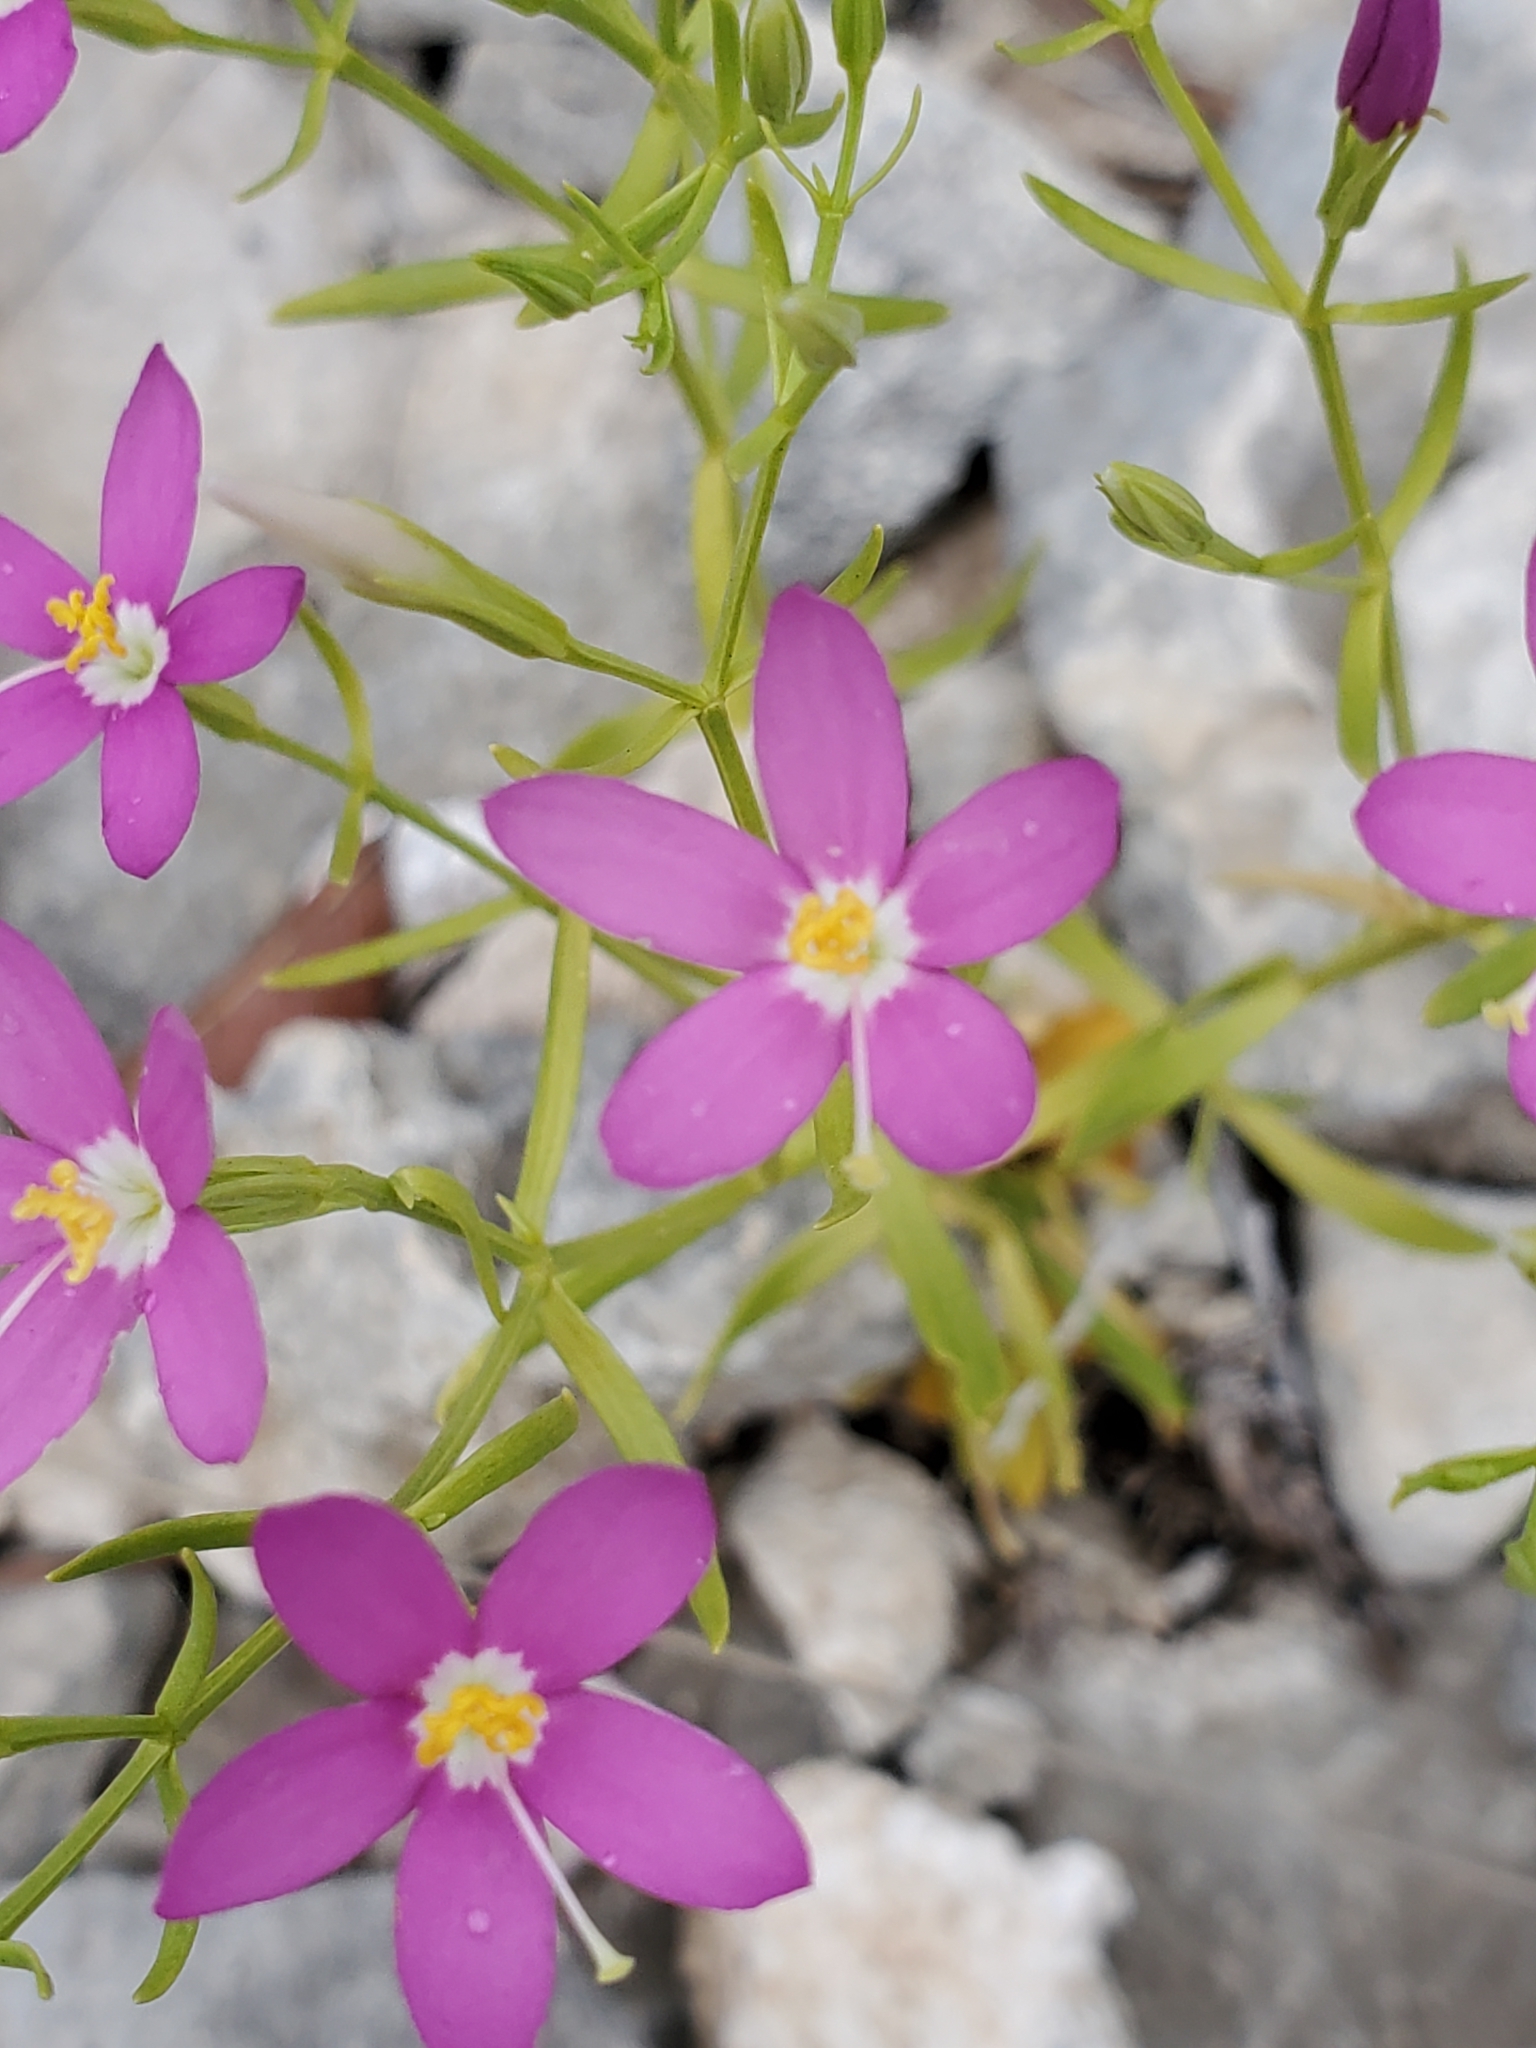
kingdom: Plantae
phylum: Tracheophyta
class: Magnoliopsida
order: Gentianales
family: Gentianaceae
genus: Zeltnera
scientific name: Zeltnera calycosa
